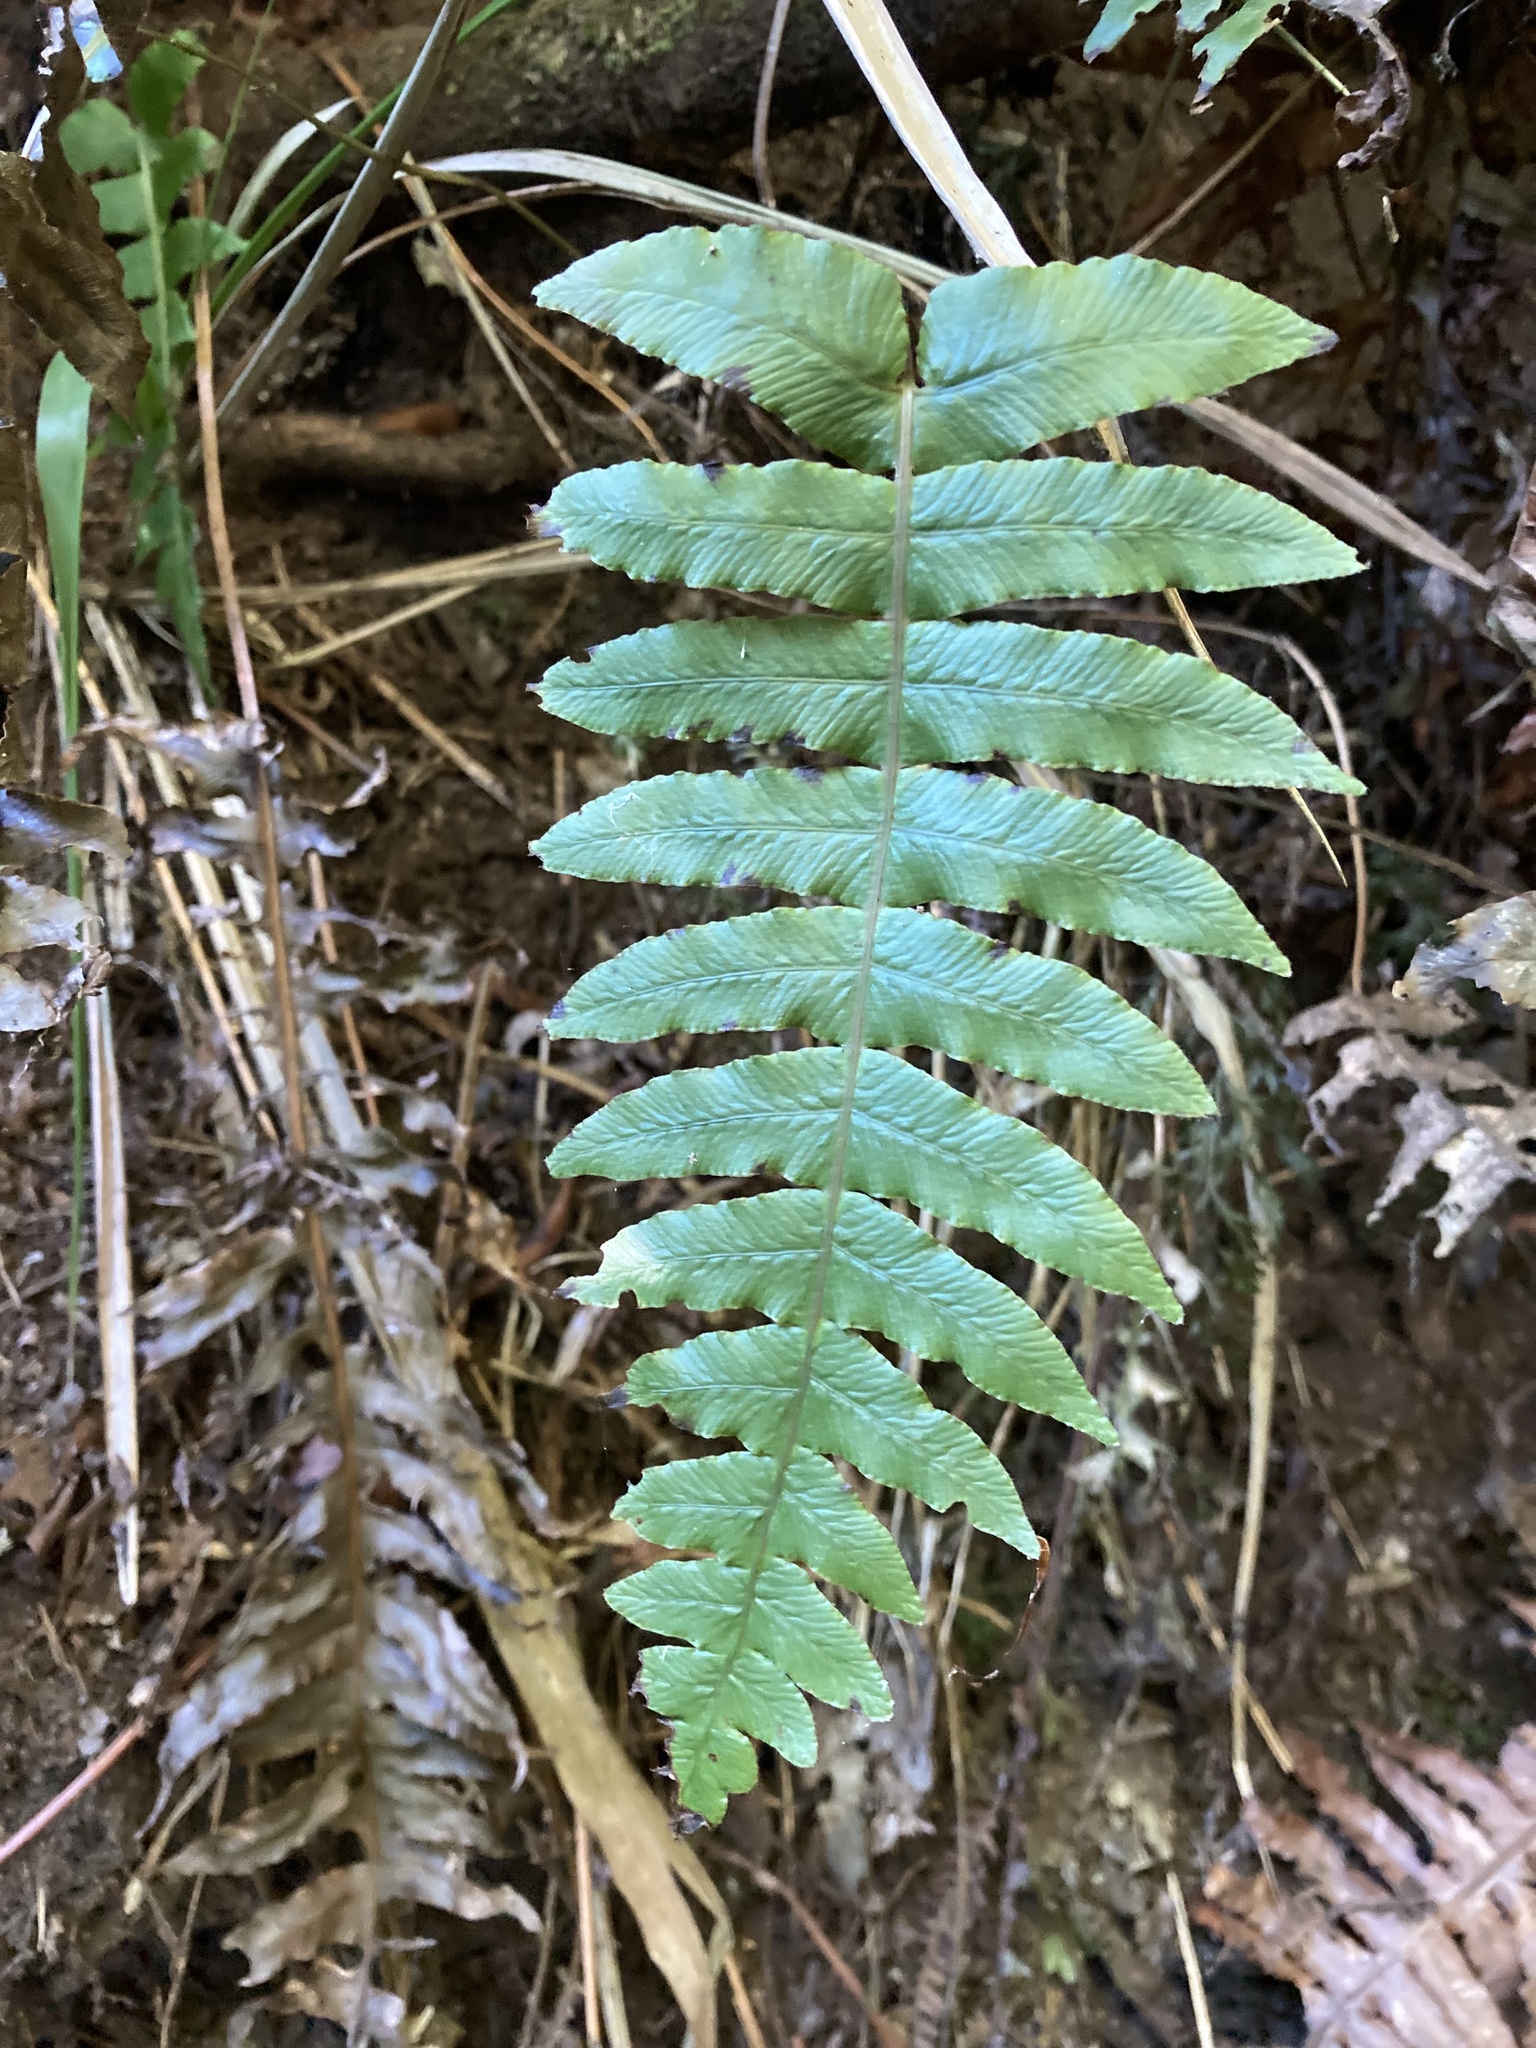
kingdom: Plantae
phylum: Tracheophyta
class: Polypodiopsida
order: Polypodiales
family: Blechnaceae
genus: Cranfillia
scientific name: Cranfillia deltoides
